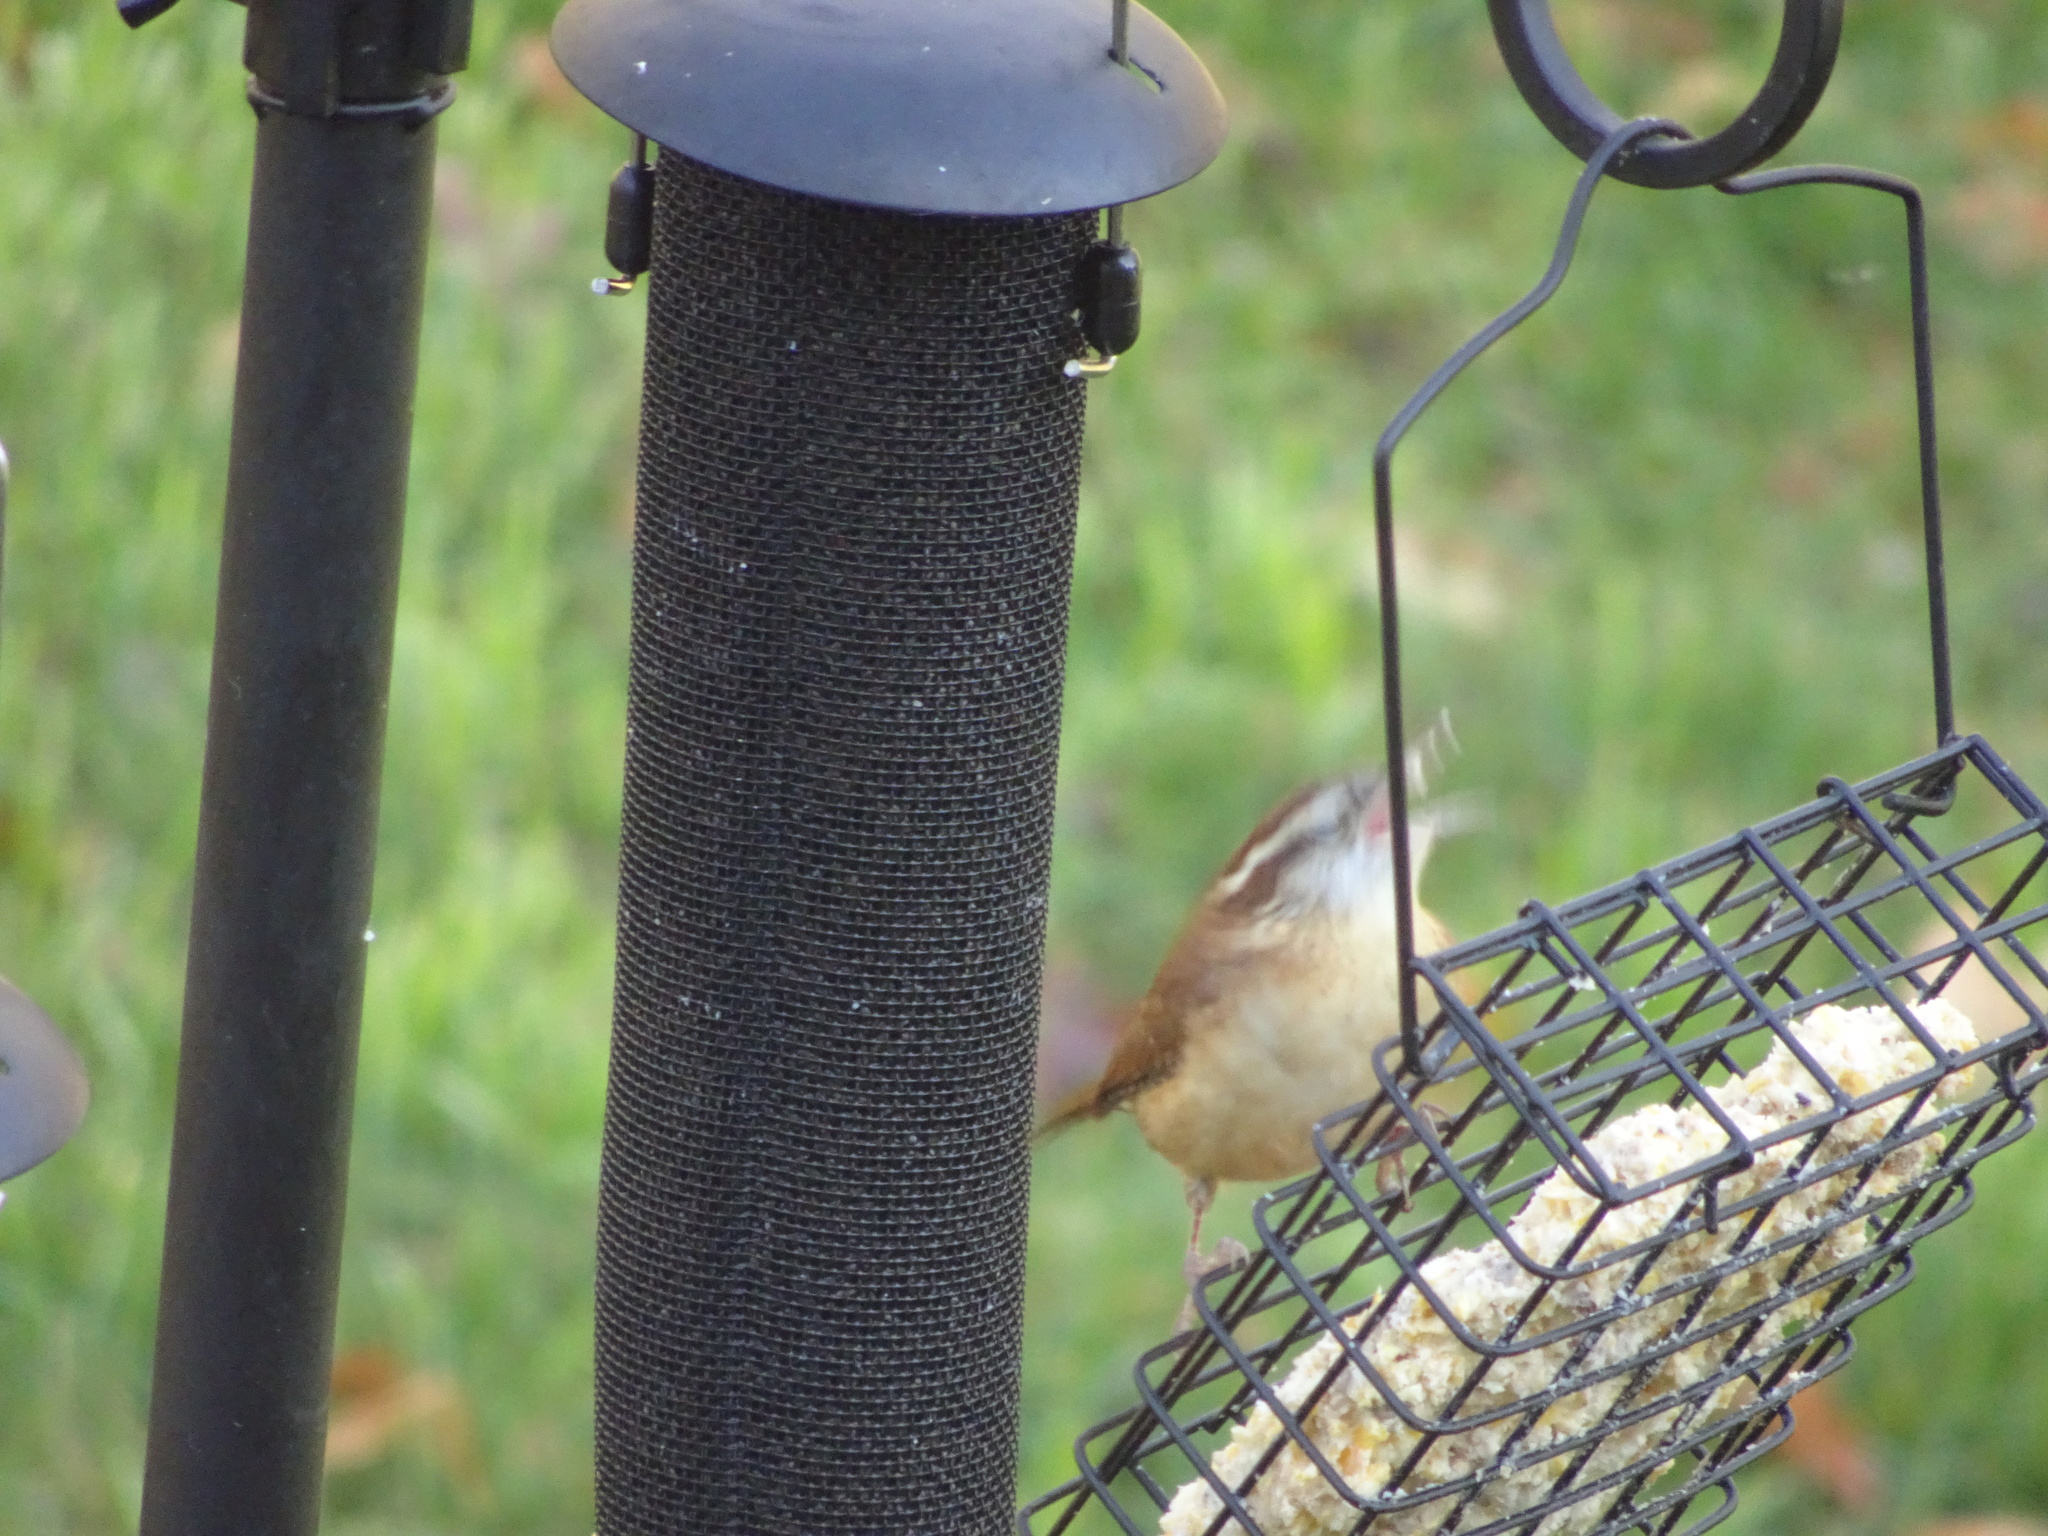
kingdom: Animalia
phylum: Chordata
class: Aves
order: Passeriformes
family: Troglodytidae
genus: Thryothorus
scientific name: Thryothorus ludovicianus
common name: Carolina wren
